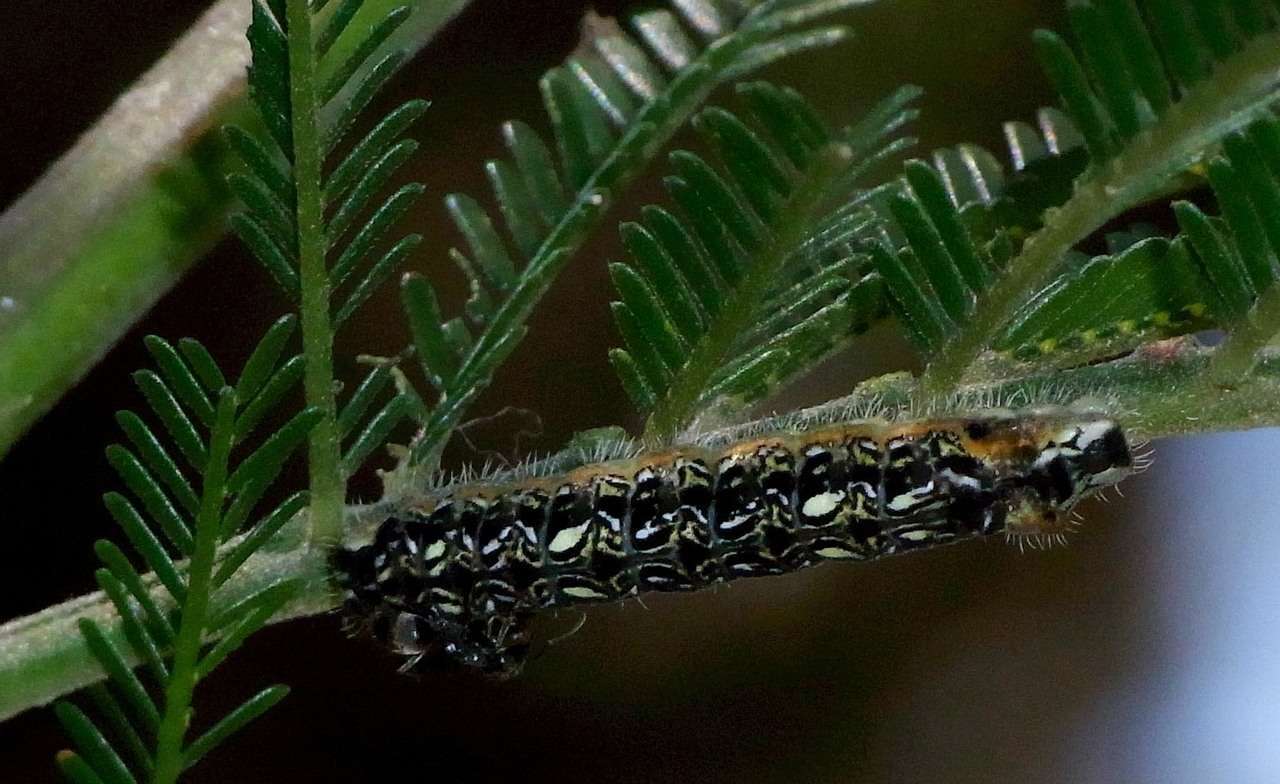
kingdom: Animalia
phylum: Arthropoda
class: Insecta
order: Lepidoptera
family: Lycaenidae
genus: Pseudalmenus
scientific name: Pseudalmenus chlorinda
